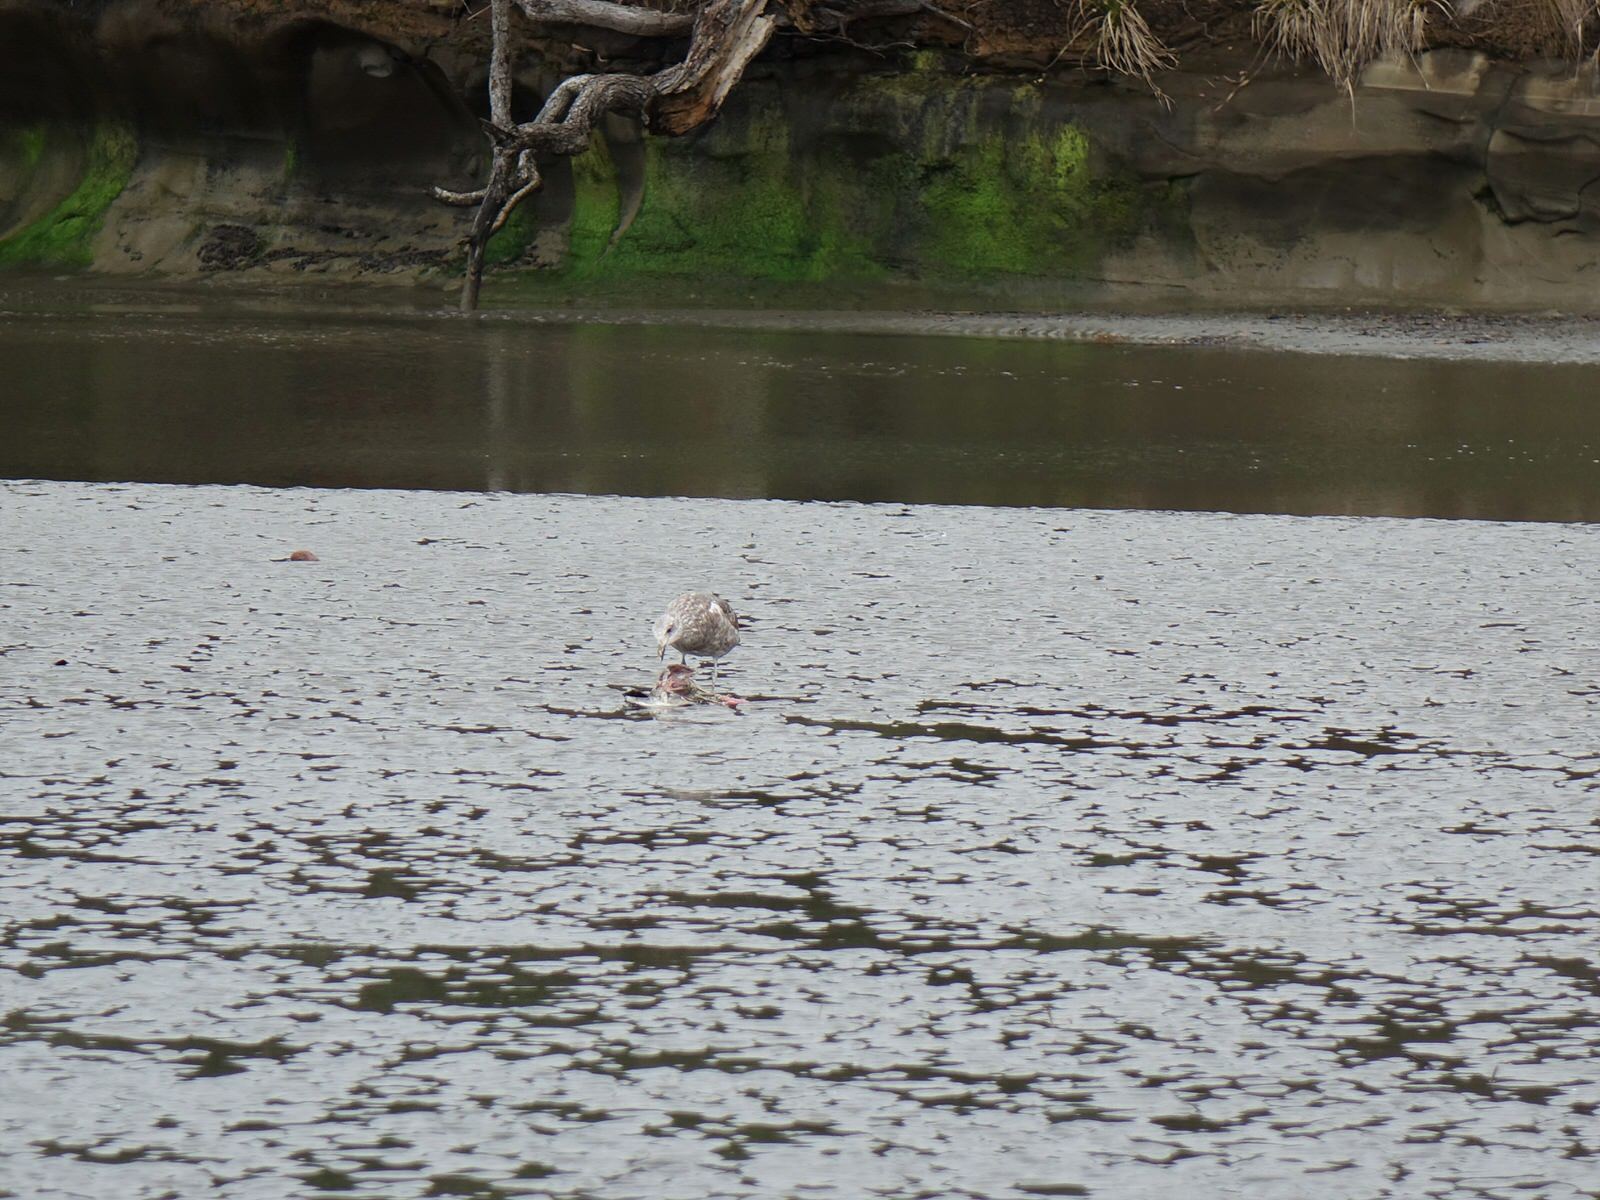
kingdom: Animalia
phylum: Chordata
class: Aves
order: Charadriiformes
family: Laridae
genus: Larus
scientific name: Larus dominicanus
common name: Kelp gull
